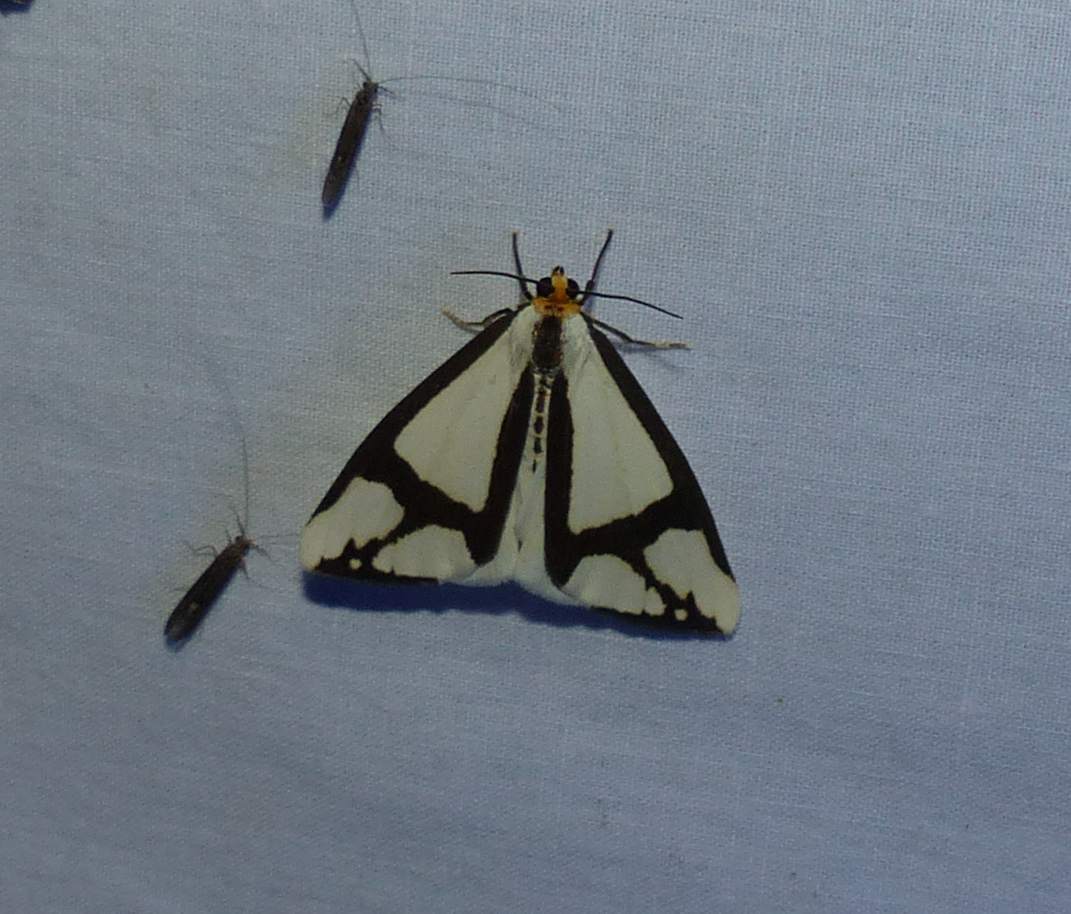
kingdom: Animalia
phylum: Arthropoda
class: Insecta
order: Lepidoptera
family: Erebidae
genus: Haploa
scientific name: Haploa contigua
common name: Neighbor moth
